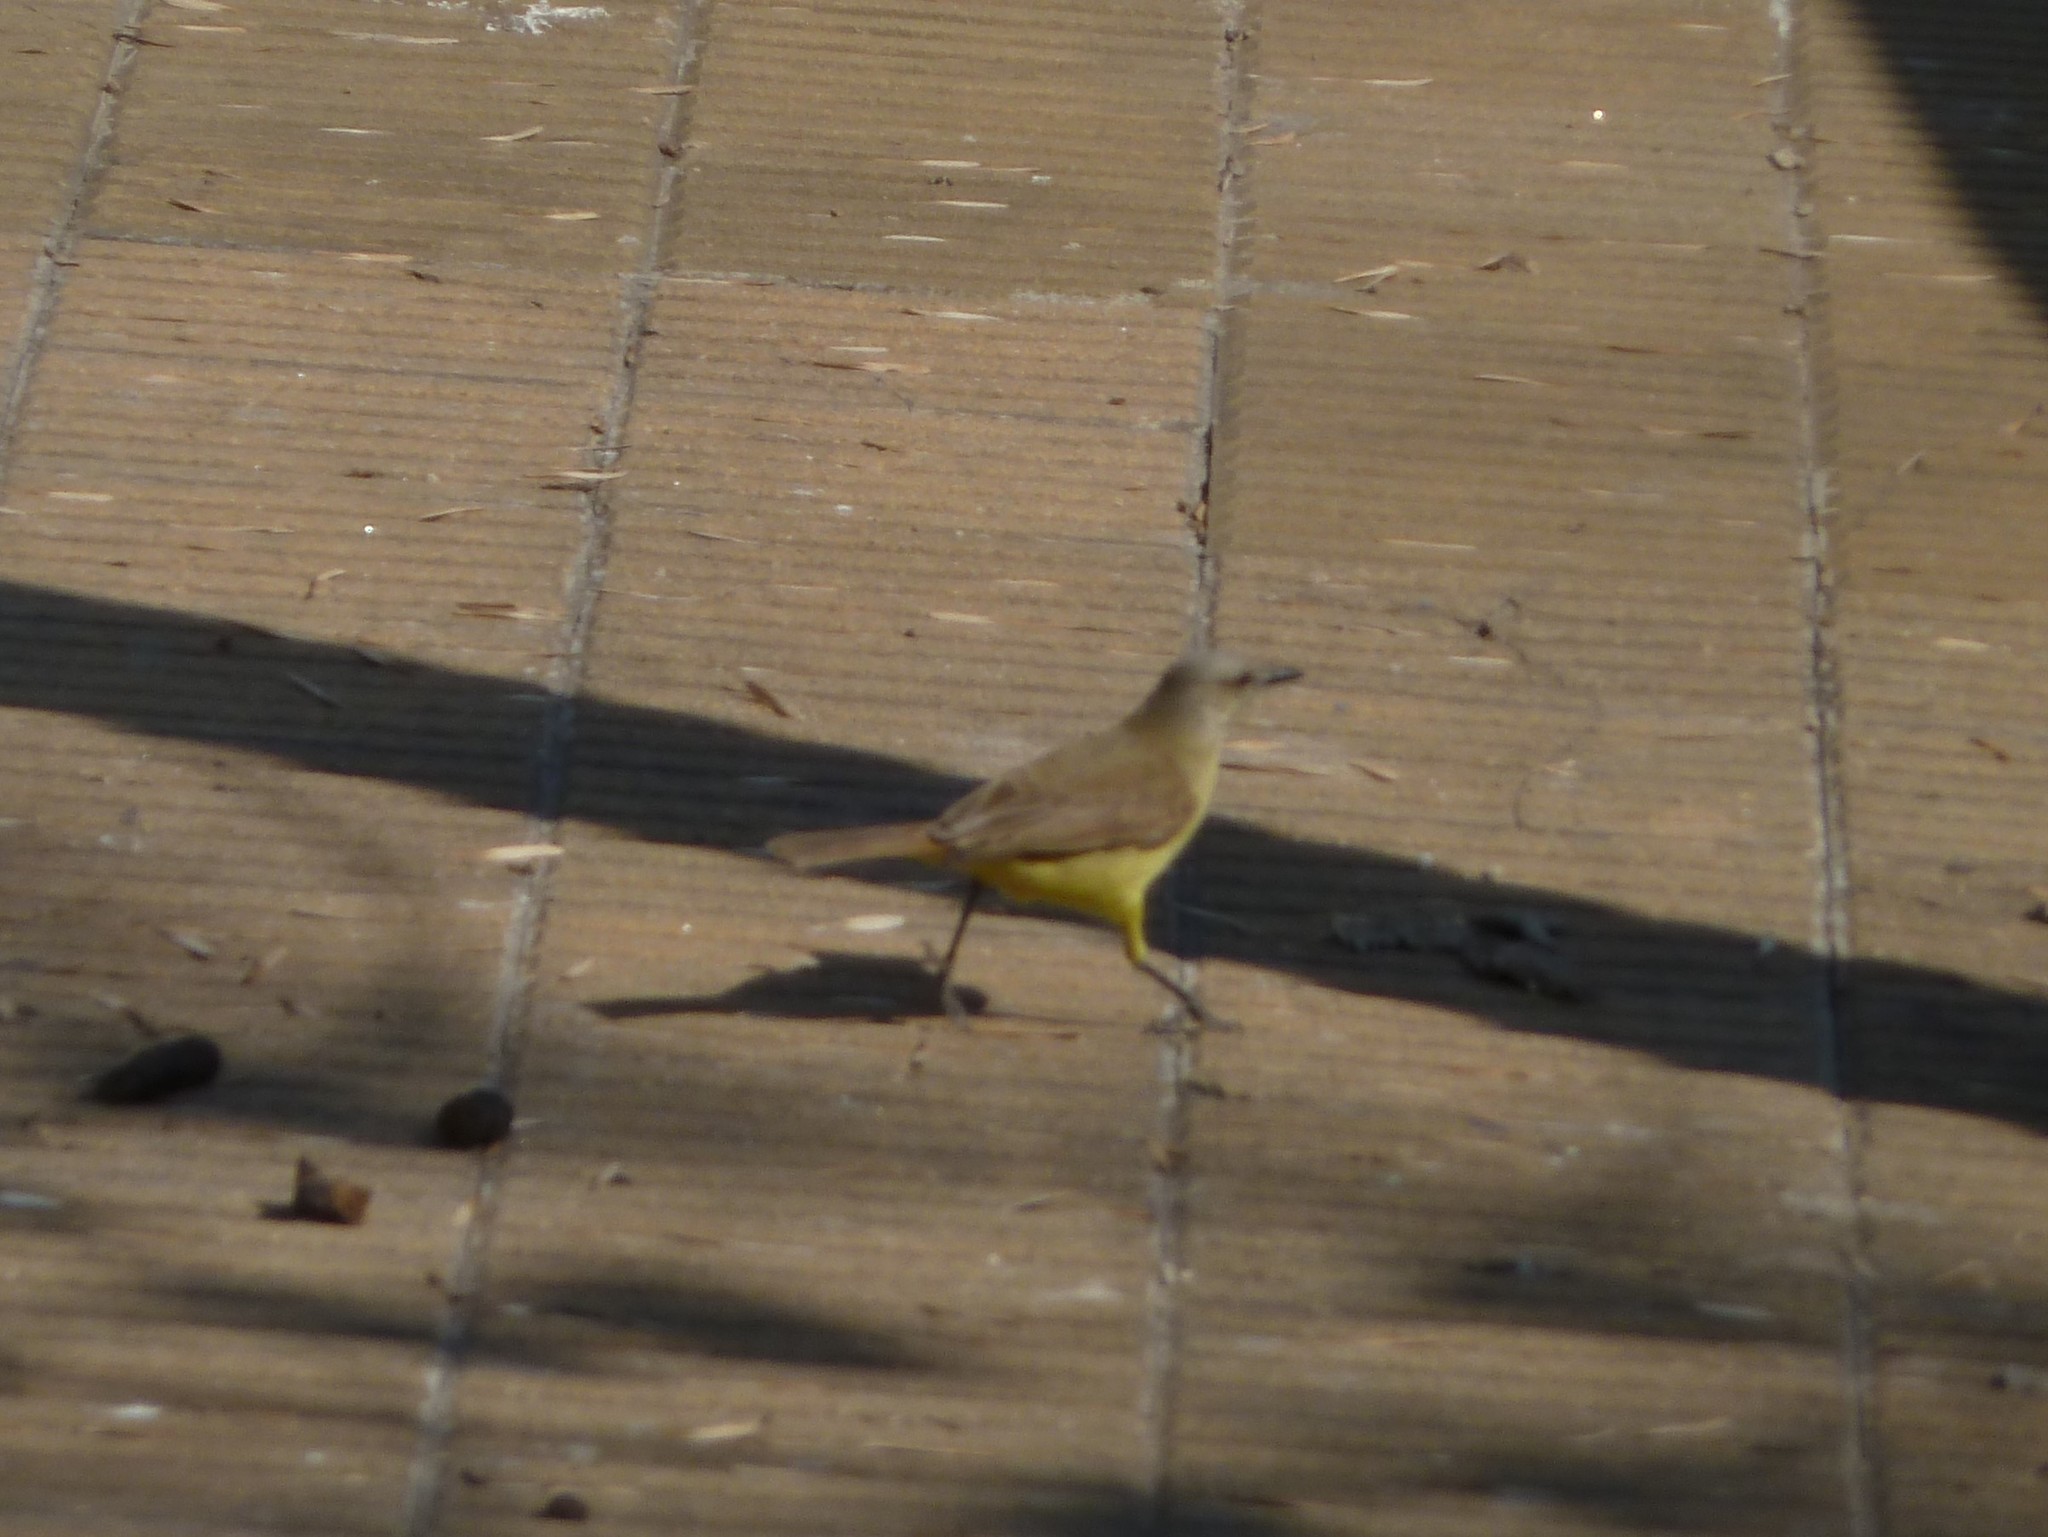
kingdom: Animalia
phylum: Chordata
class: Aves
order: Passeriformes
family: Tyrannidae
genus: Machetornis
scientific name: Machetornis rixosa
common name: Cattle tyrant
